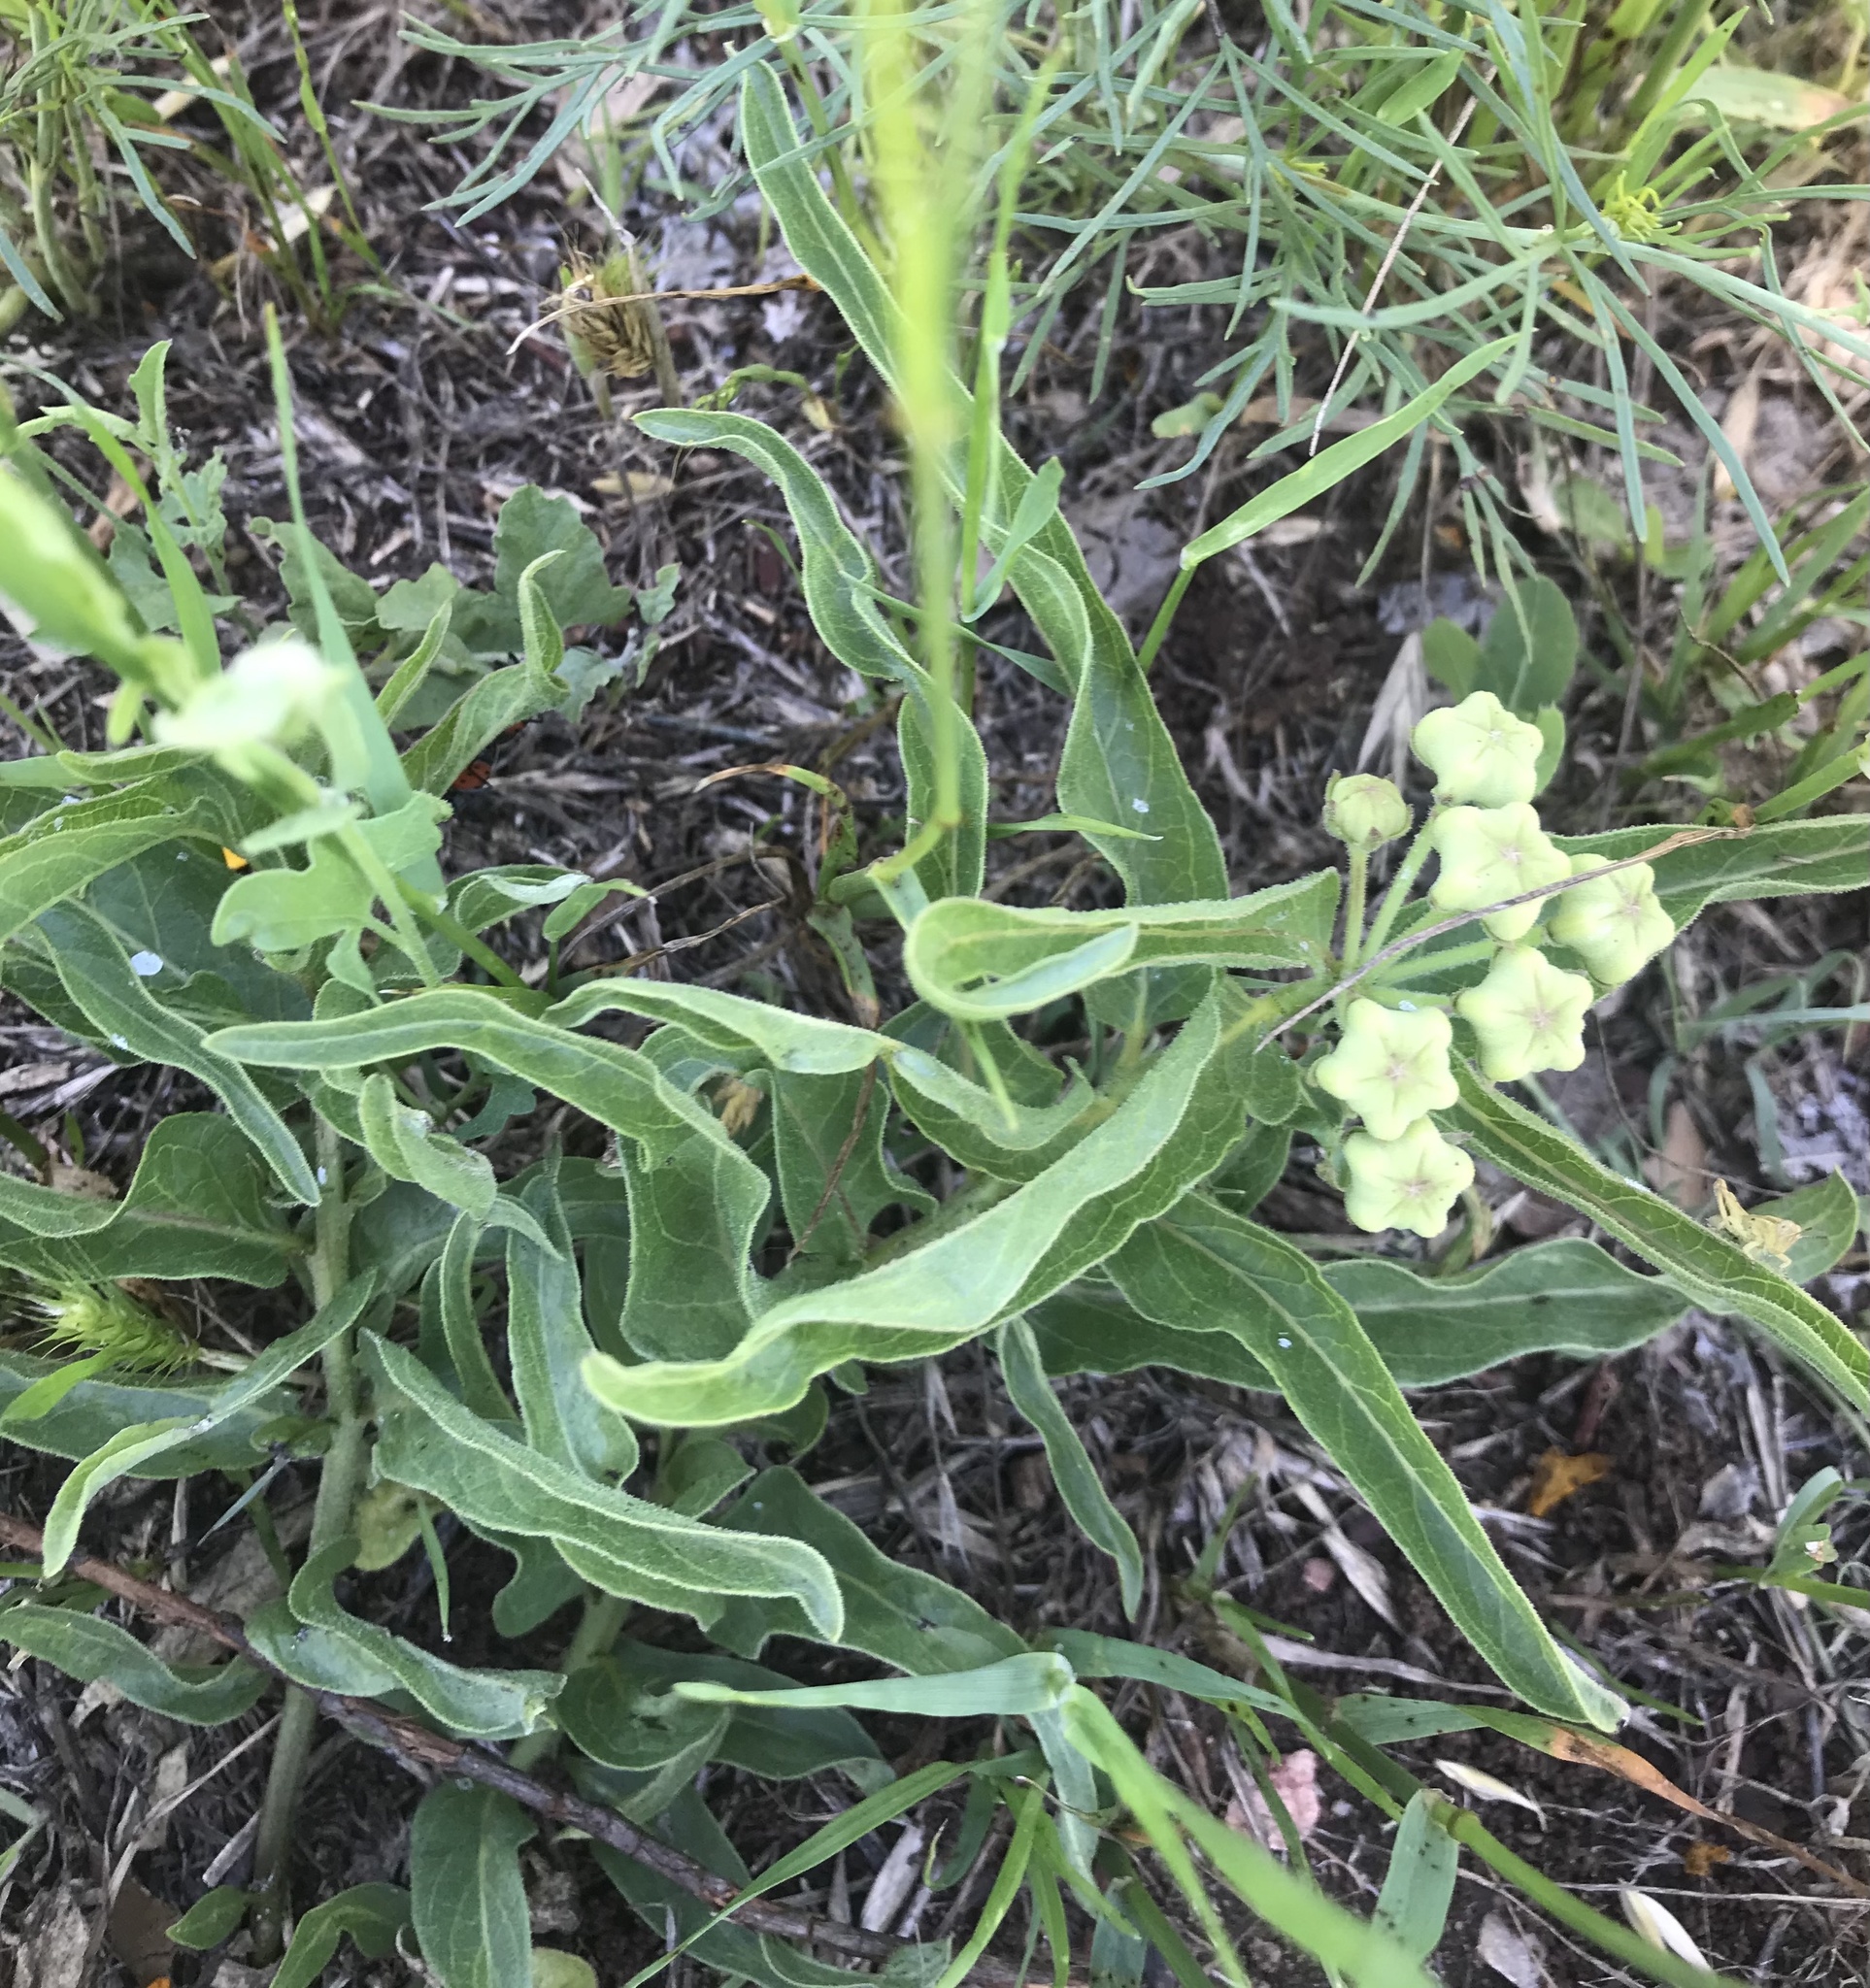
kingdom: Plantae
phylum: Tracheophyta
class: Magnoliopsida
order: Gentianales
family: Apocynaceae
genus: Asclepias
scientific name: Asclepias asperula
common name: Antelope horns
